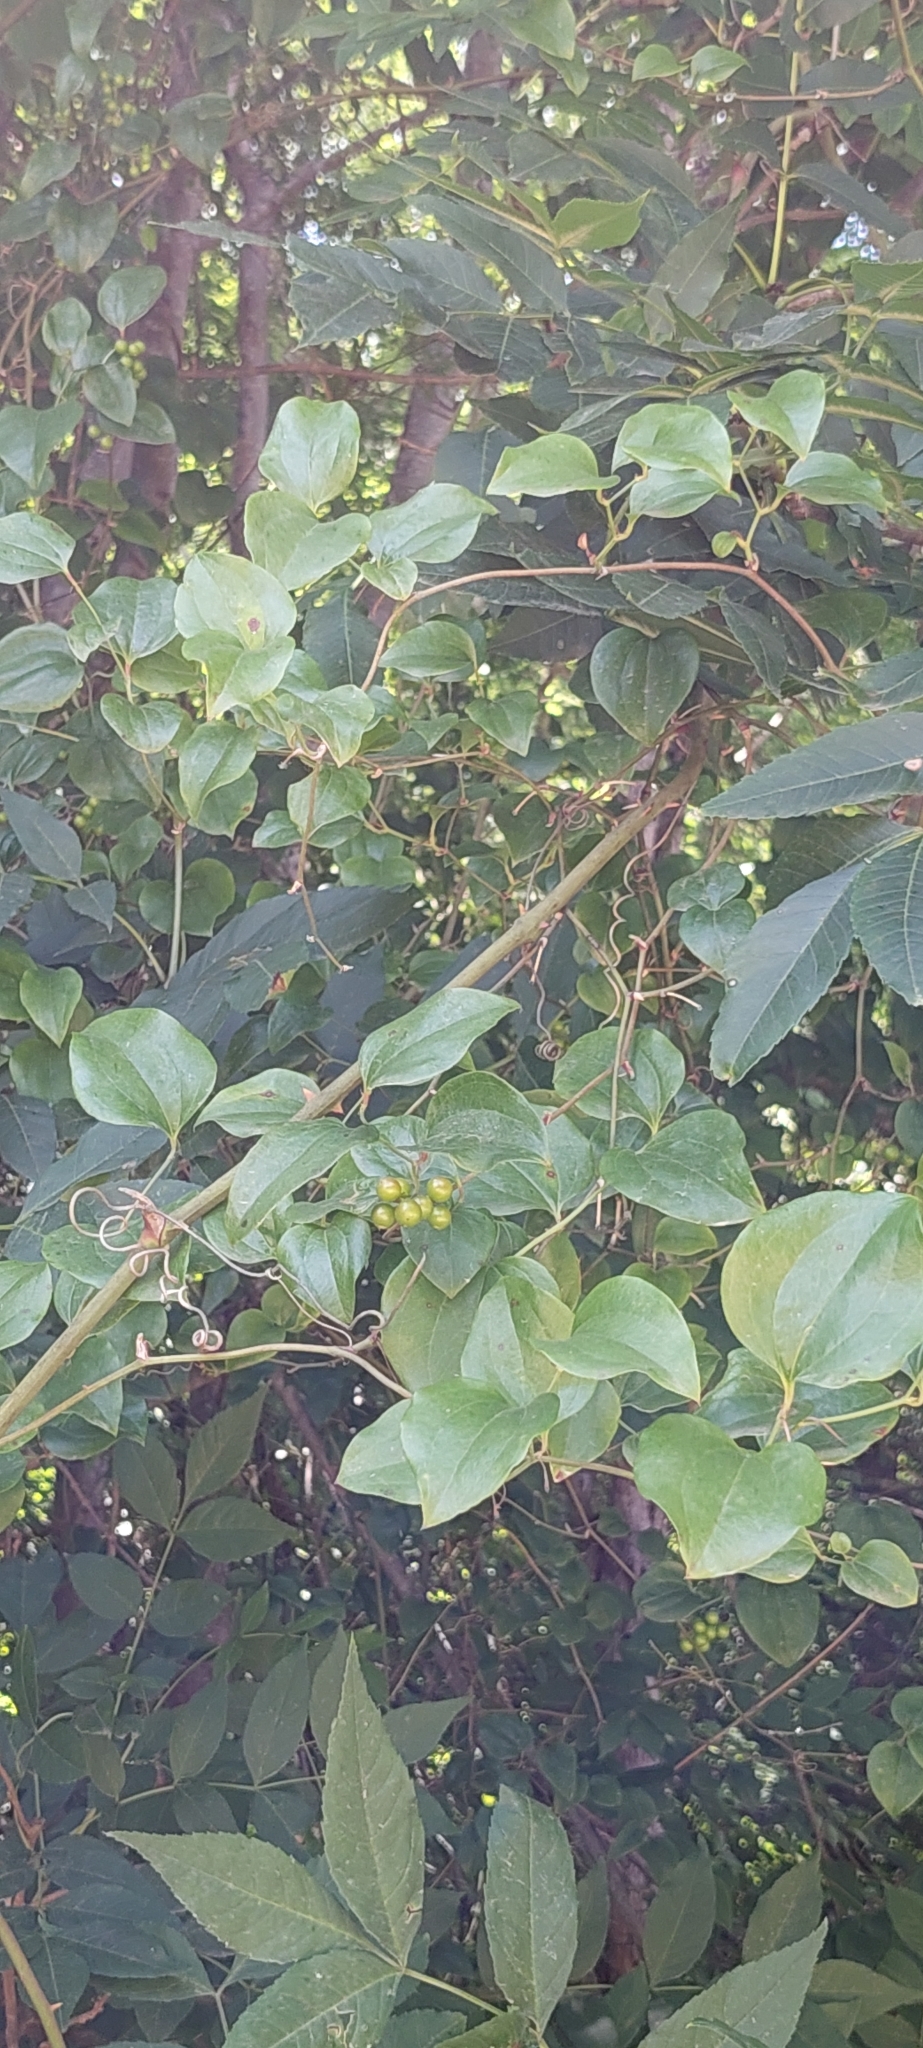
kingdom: Plantae
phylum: Tracheophyta
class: Liliopsida
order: Liliales
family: Smilacaceae
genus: Smilax
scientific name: Smilax excelsa
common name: Larger smilax
